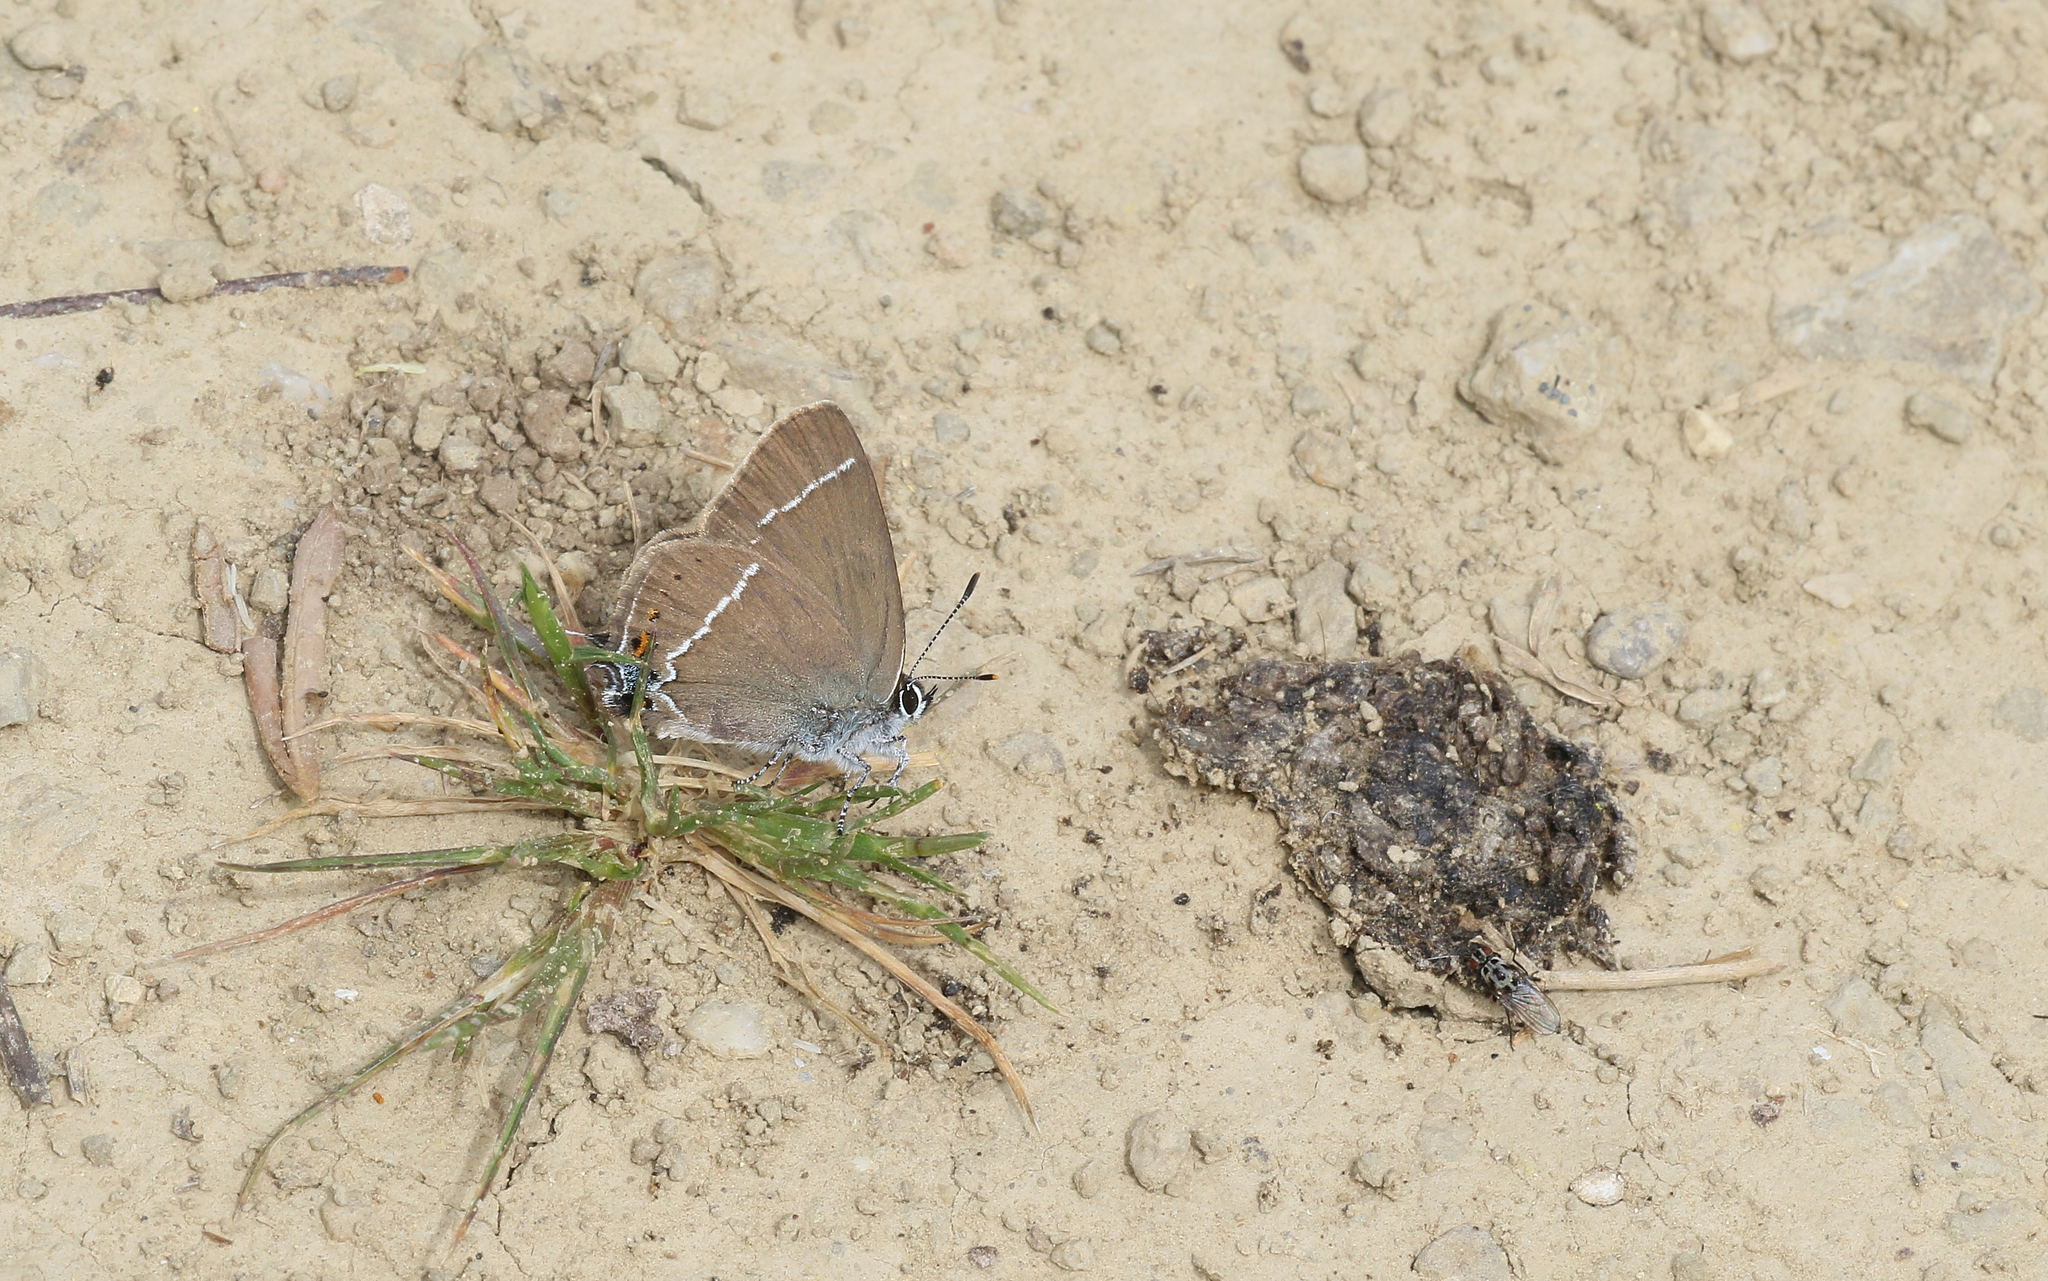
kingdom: Animalia
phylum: Arthropoda
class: Insecta
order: Lepidoptera
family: Lycaenidae
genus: Tuttiola
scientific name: Tuttiola spini
